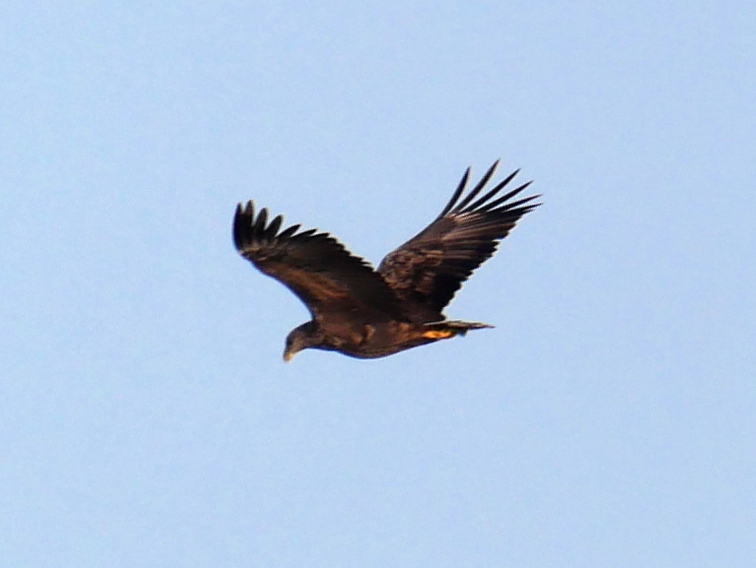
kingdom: Animalia
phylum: Chordata
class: Aves
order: Accipitriformes
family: Accipitridae
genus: Haliaeetus
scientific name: Haliaeetus albicilla
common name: White-tailed eagle
